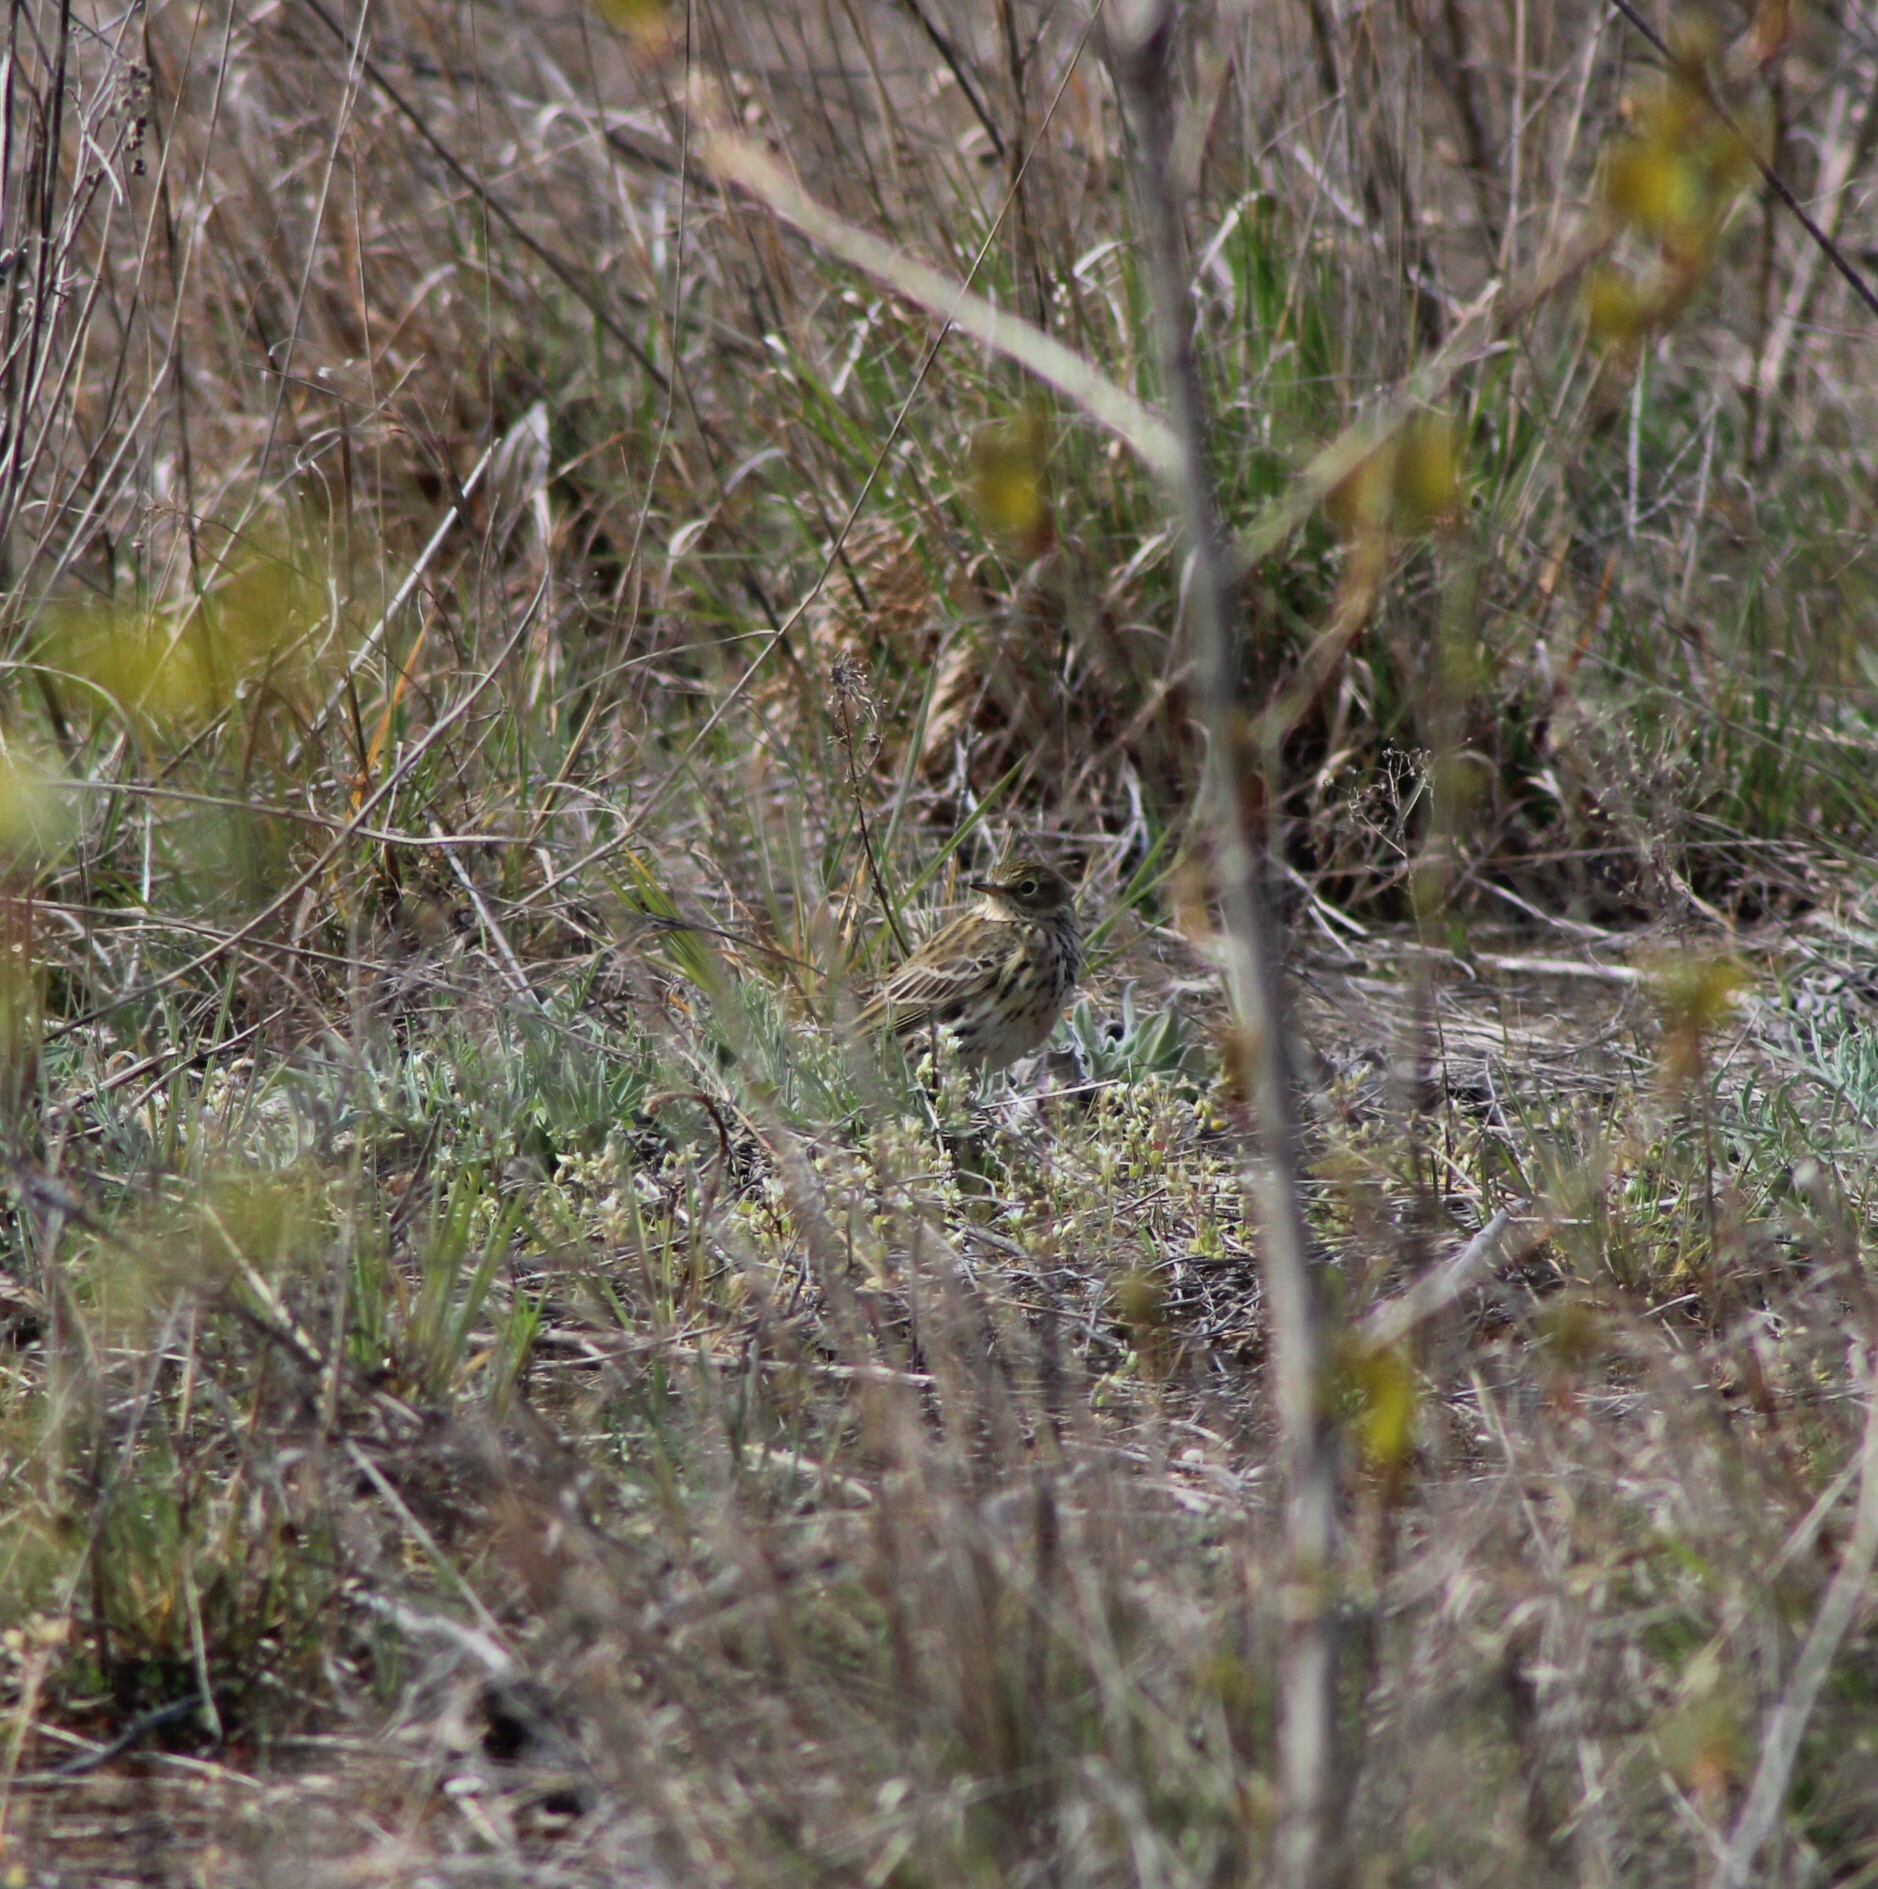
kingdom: Animalia
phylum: Chordata
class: Aves
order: Passeriformes
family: Motacillidae
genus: Anthus
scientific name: Anthus pratensis
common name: Meadow pipit
